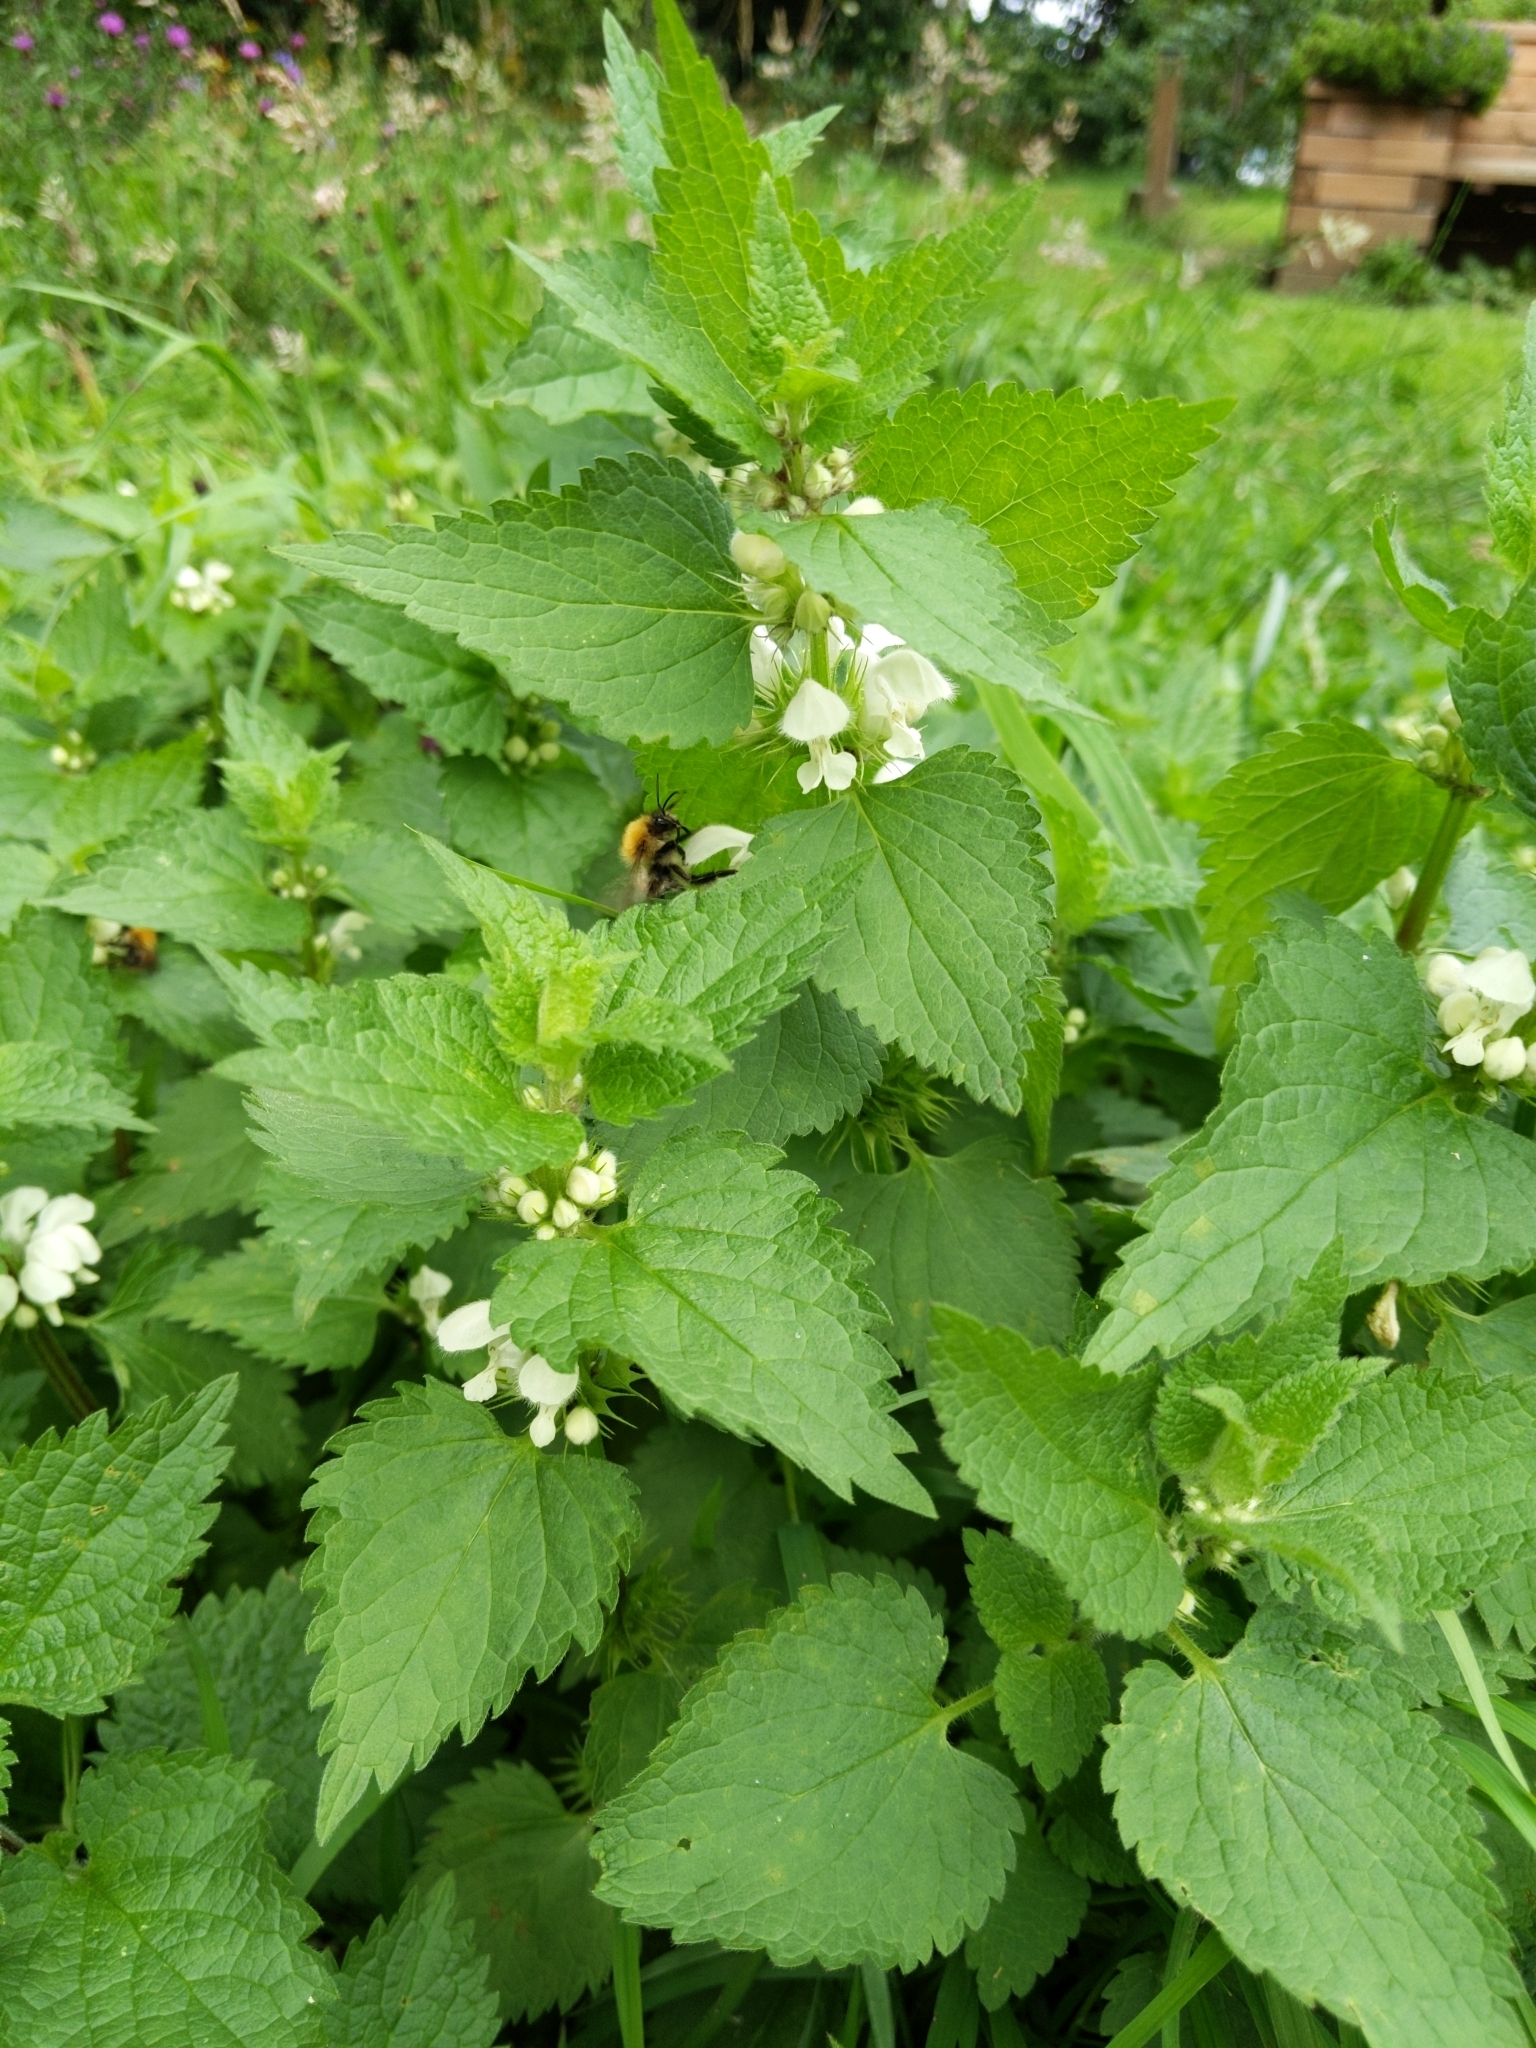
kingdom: Plantae
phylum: Tracheophyta
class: Magnoliopsida
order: Lamiales
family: Lamiaceae
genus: Lamium
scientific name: Lamium album
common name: White dead-nettle
